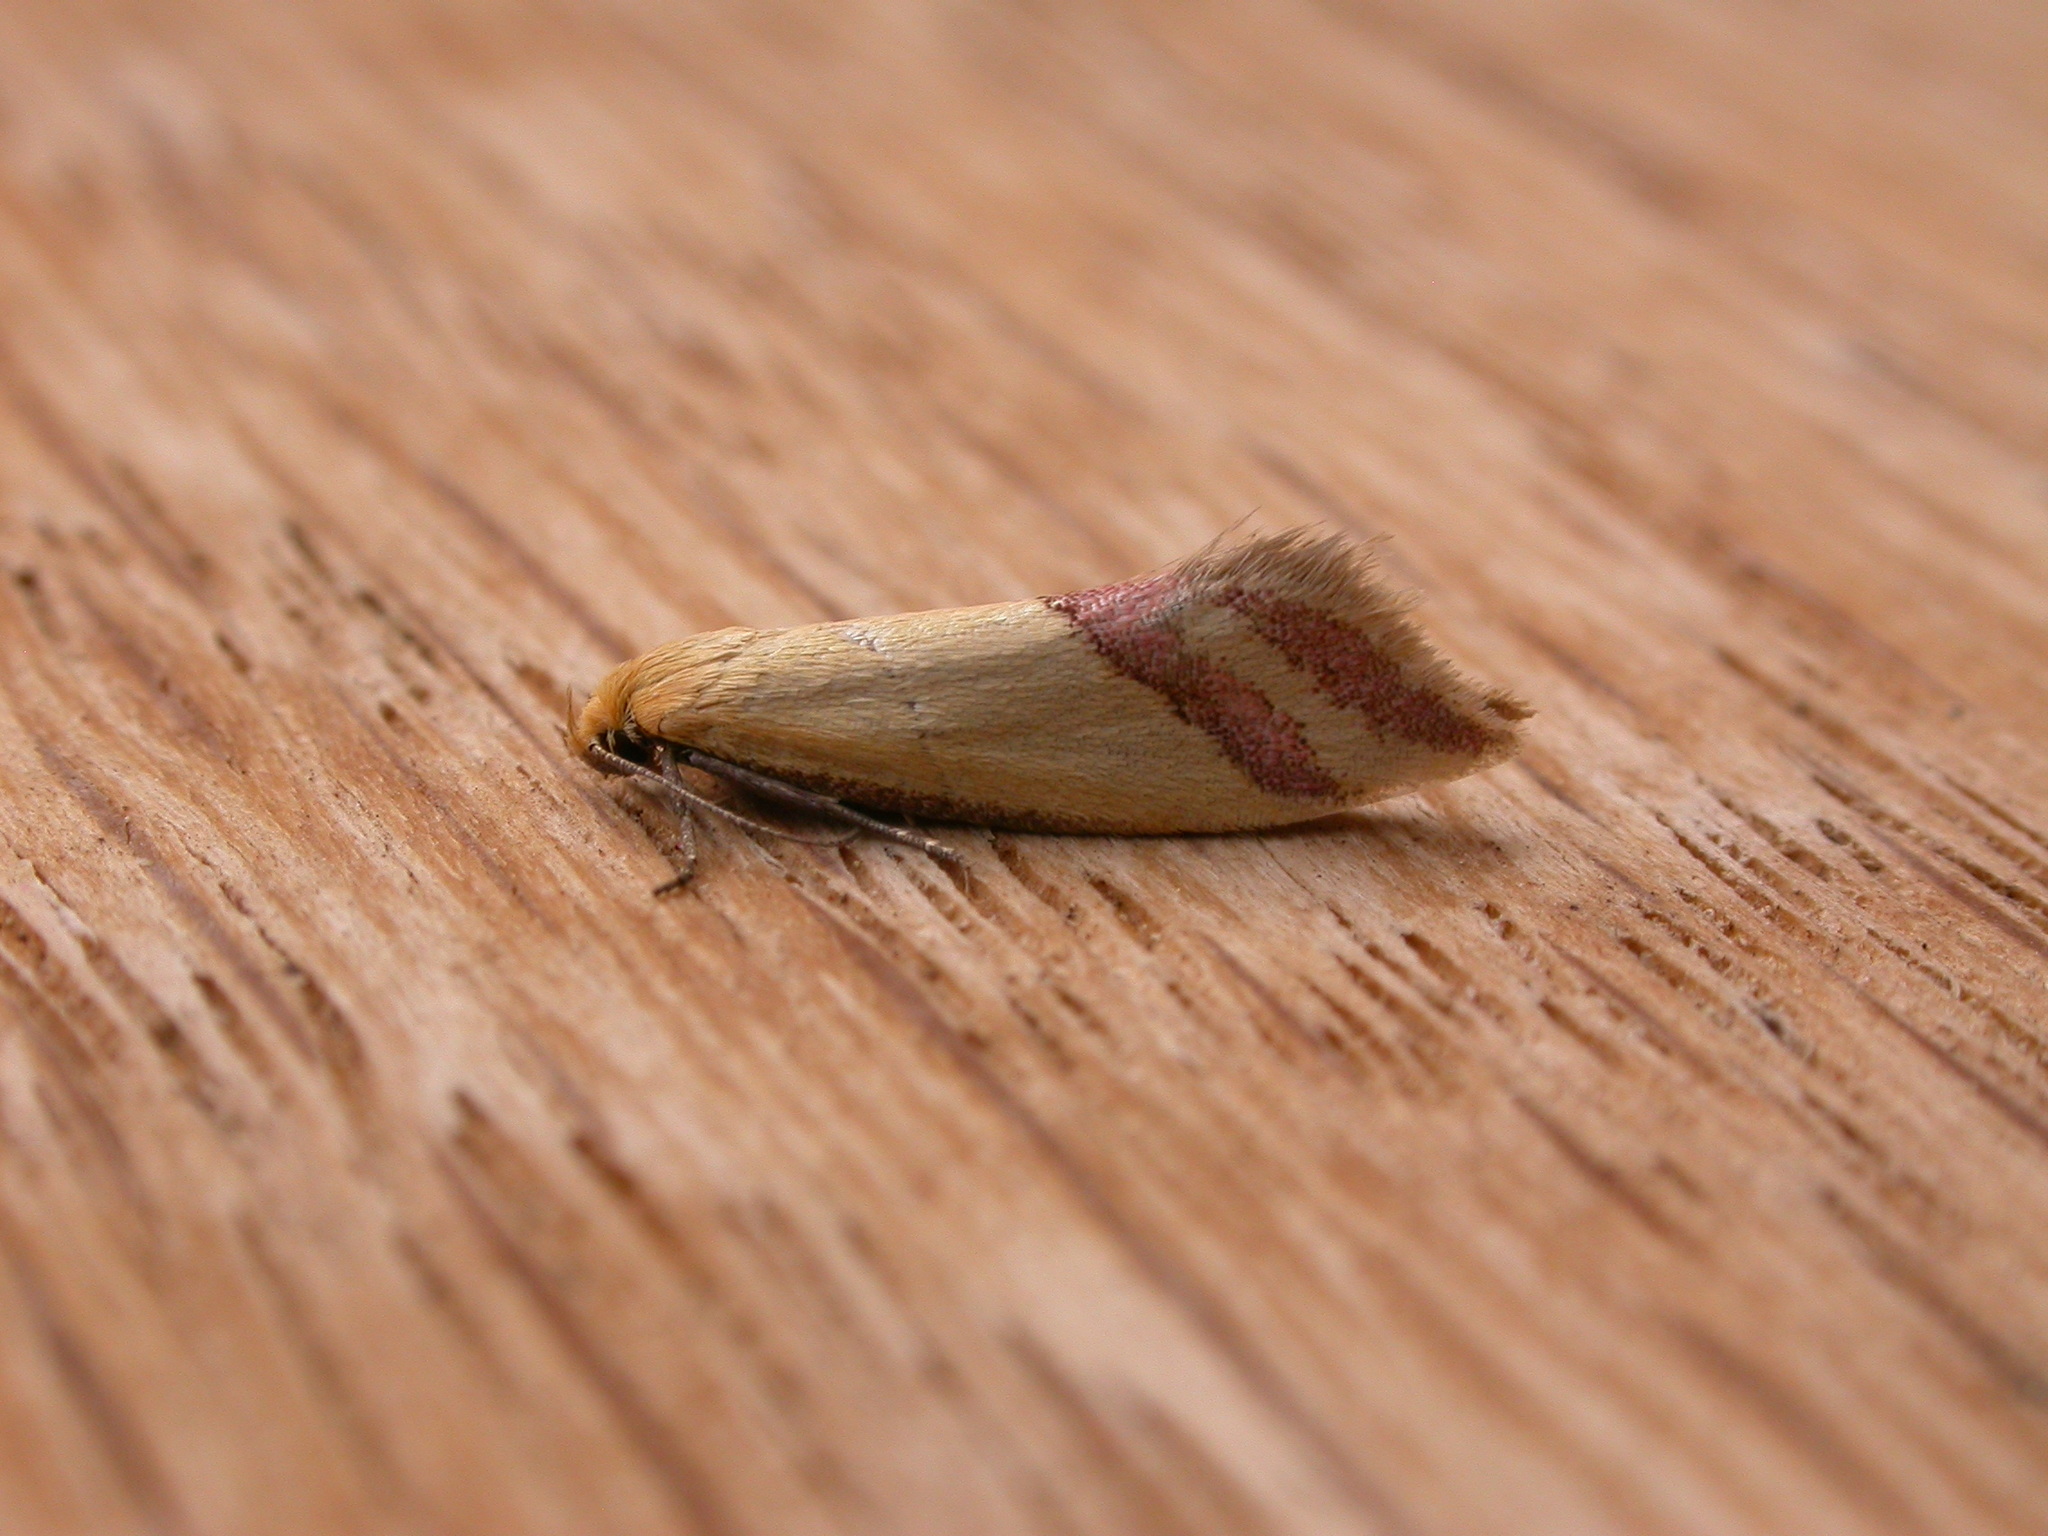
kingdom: Animalia
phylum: Arthropoda
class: Insecta
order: Lepidoptera
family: Oecophoridae
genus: Coeranica
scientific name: Coeranica isabella
